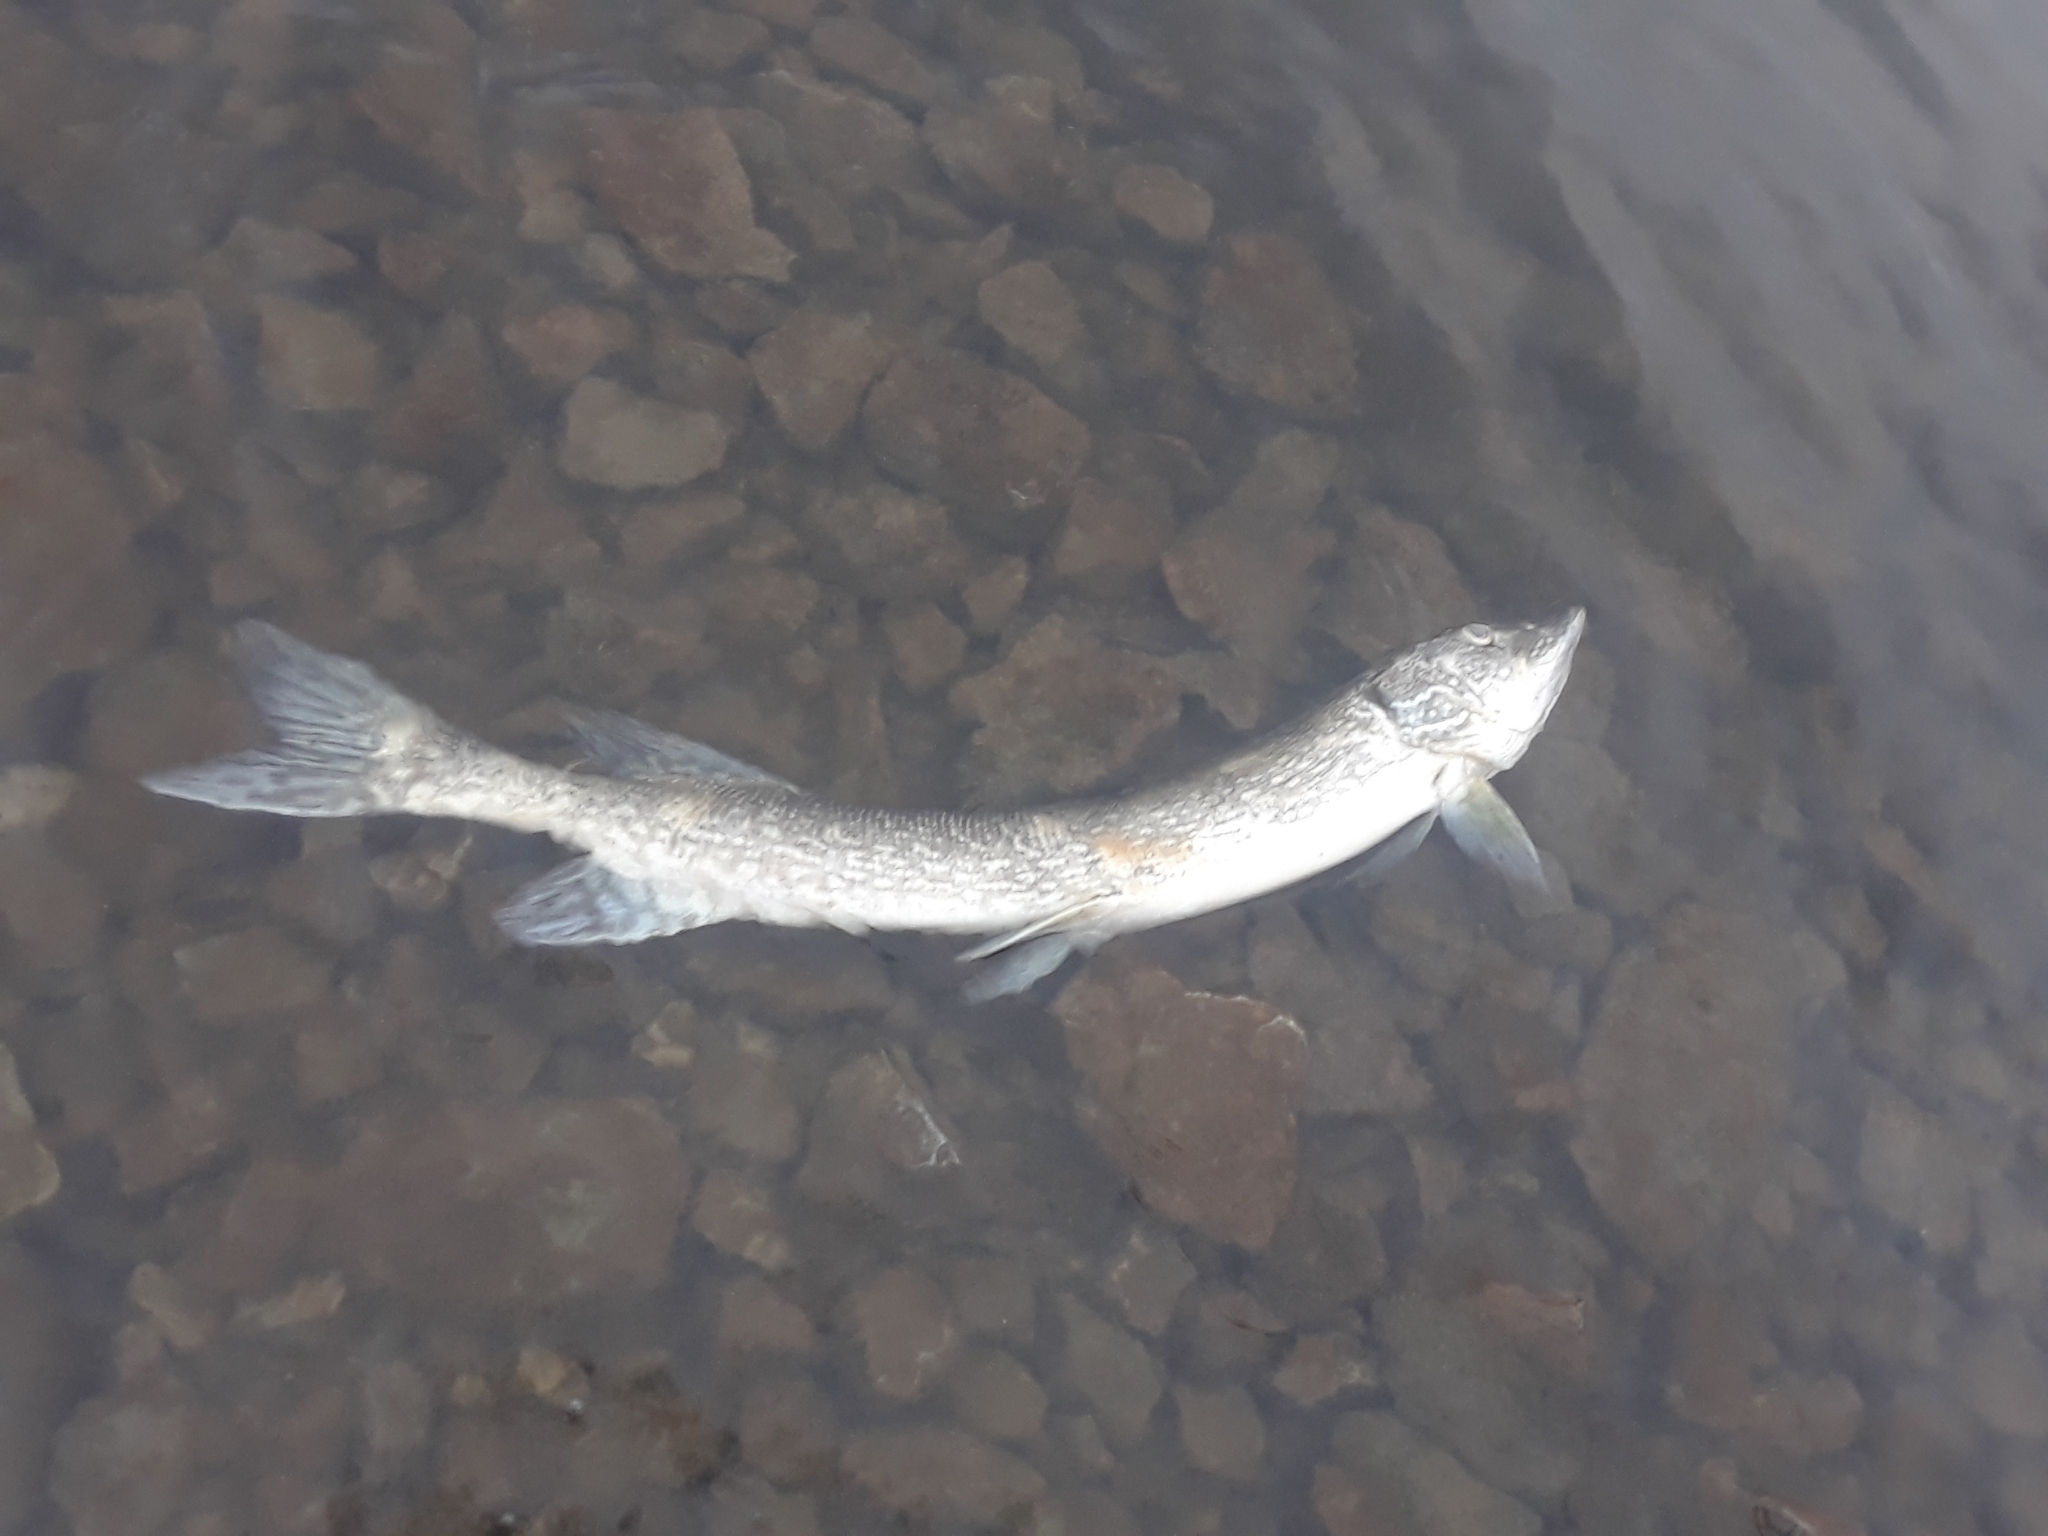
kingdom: Animalia
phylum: Chordata
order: Esociformes
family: Esocidae
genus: Esox
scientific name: Esox lucius
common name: Northern pike
